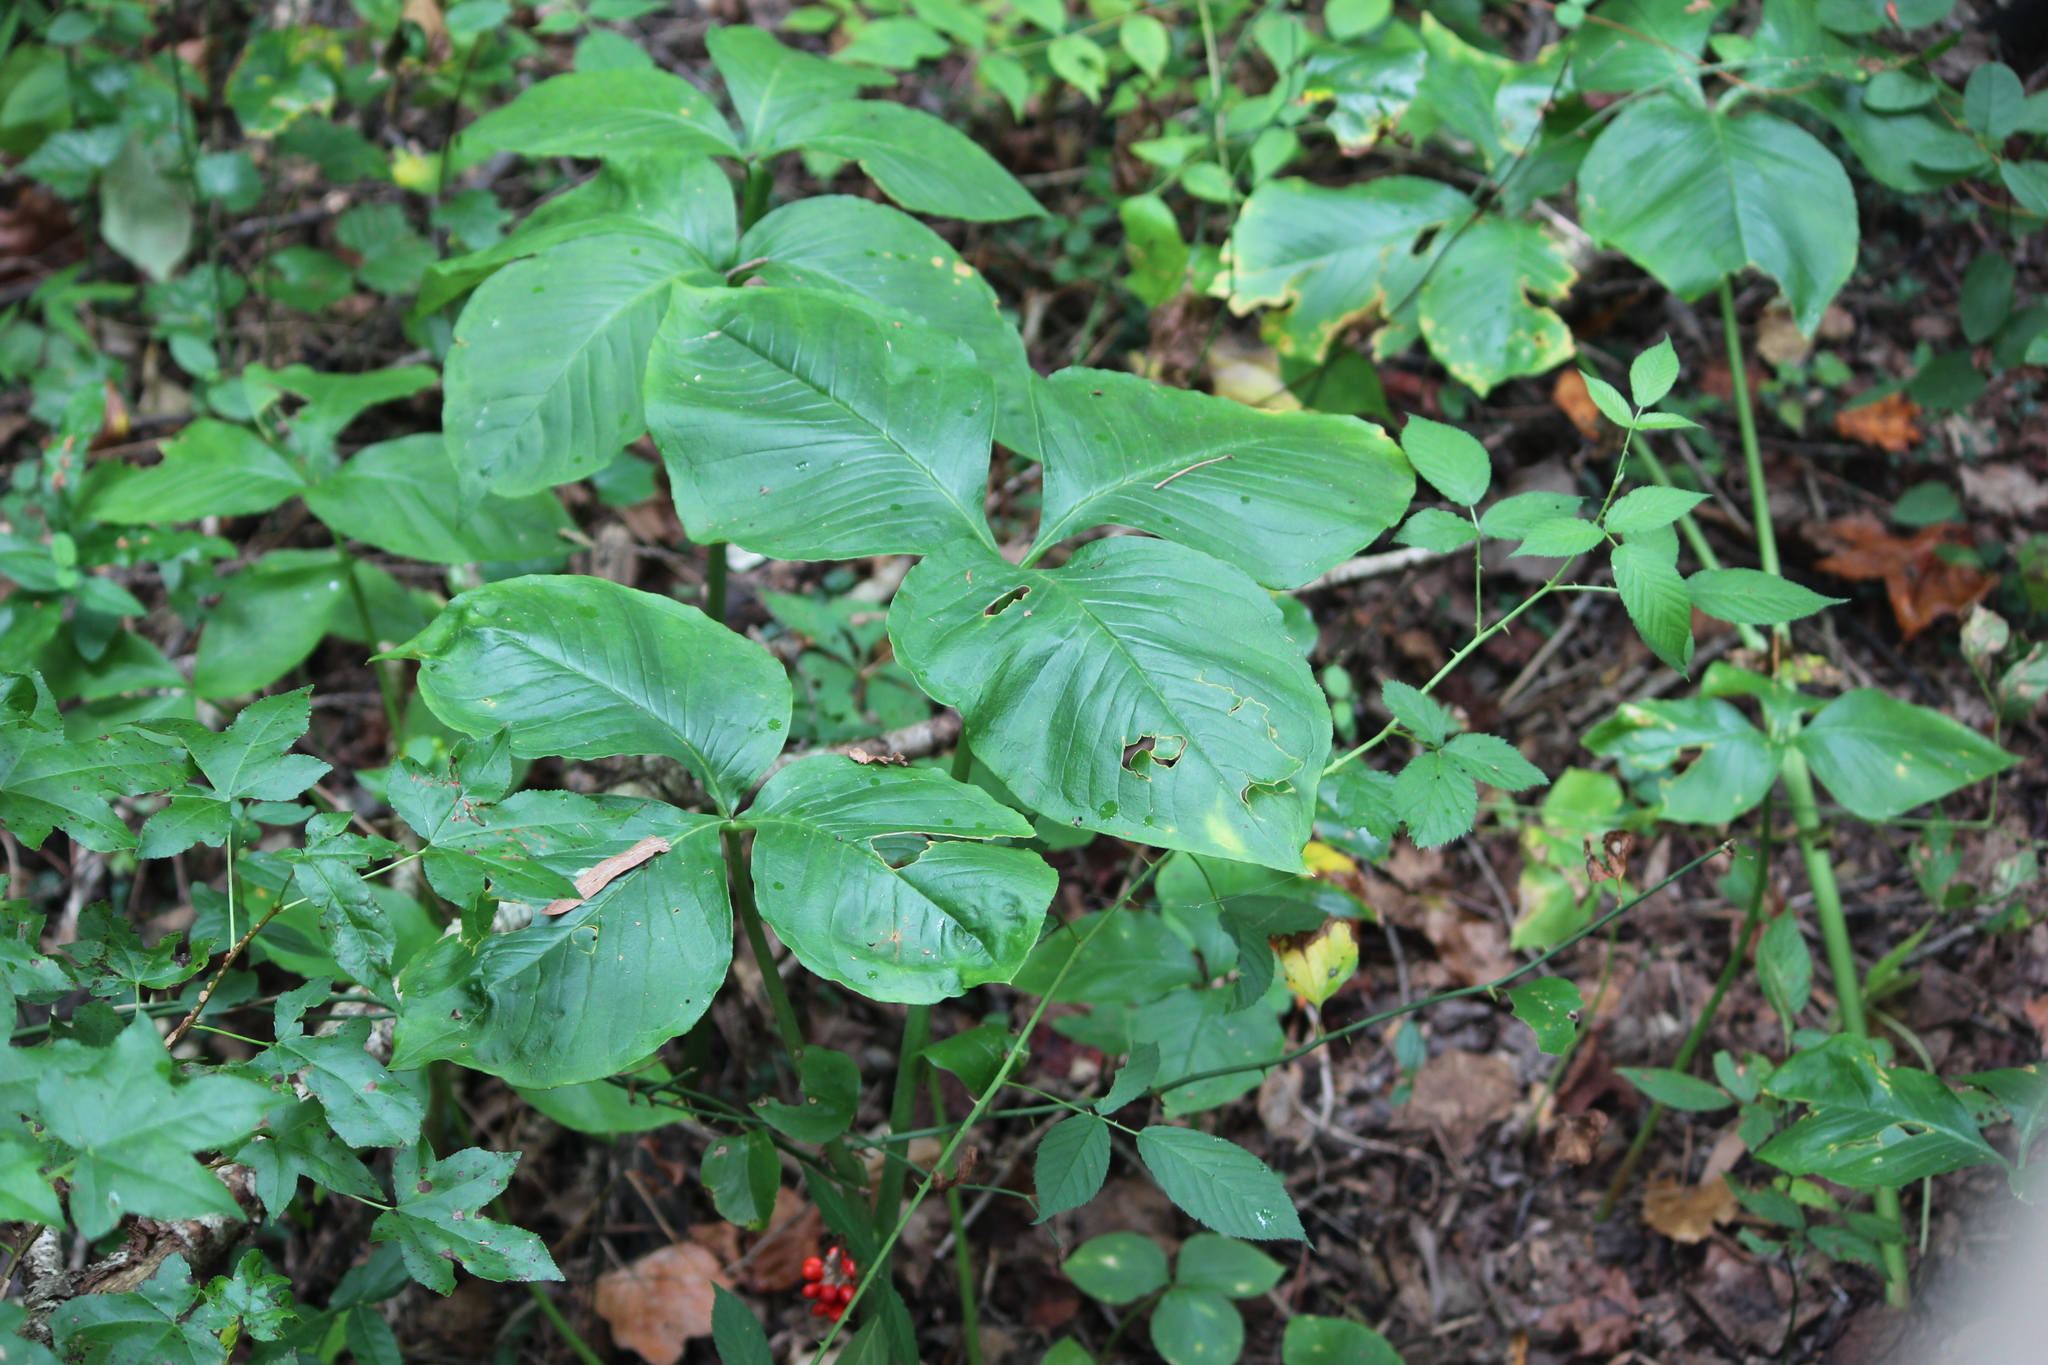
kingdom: Plantae
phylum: Tracheophyta
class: Liliopsida
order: Alismatales
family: Araceae
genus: Arisaema
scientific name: Arisaema triphyllum
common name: Jack-in-the-pulpit
